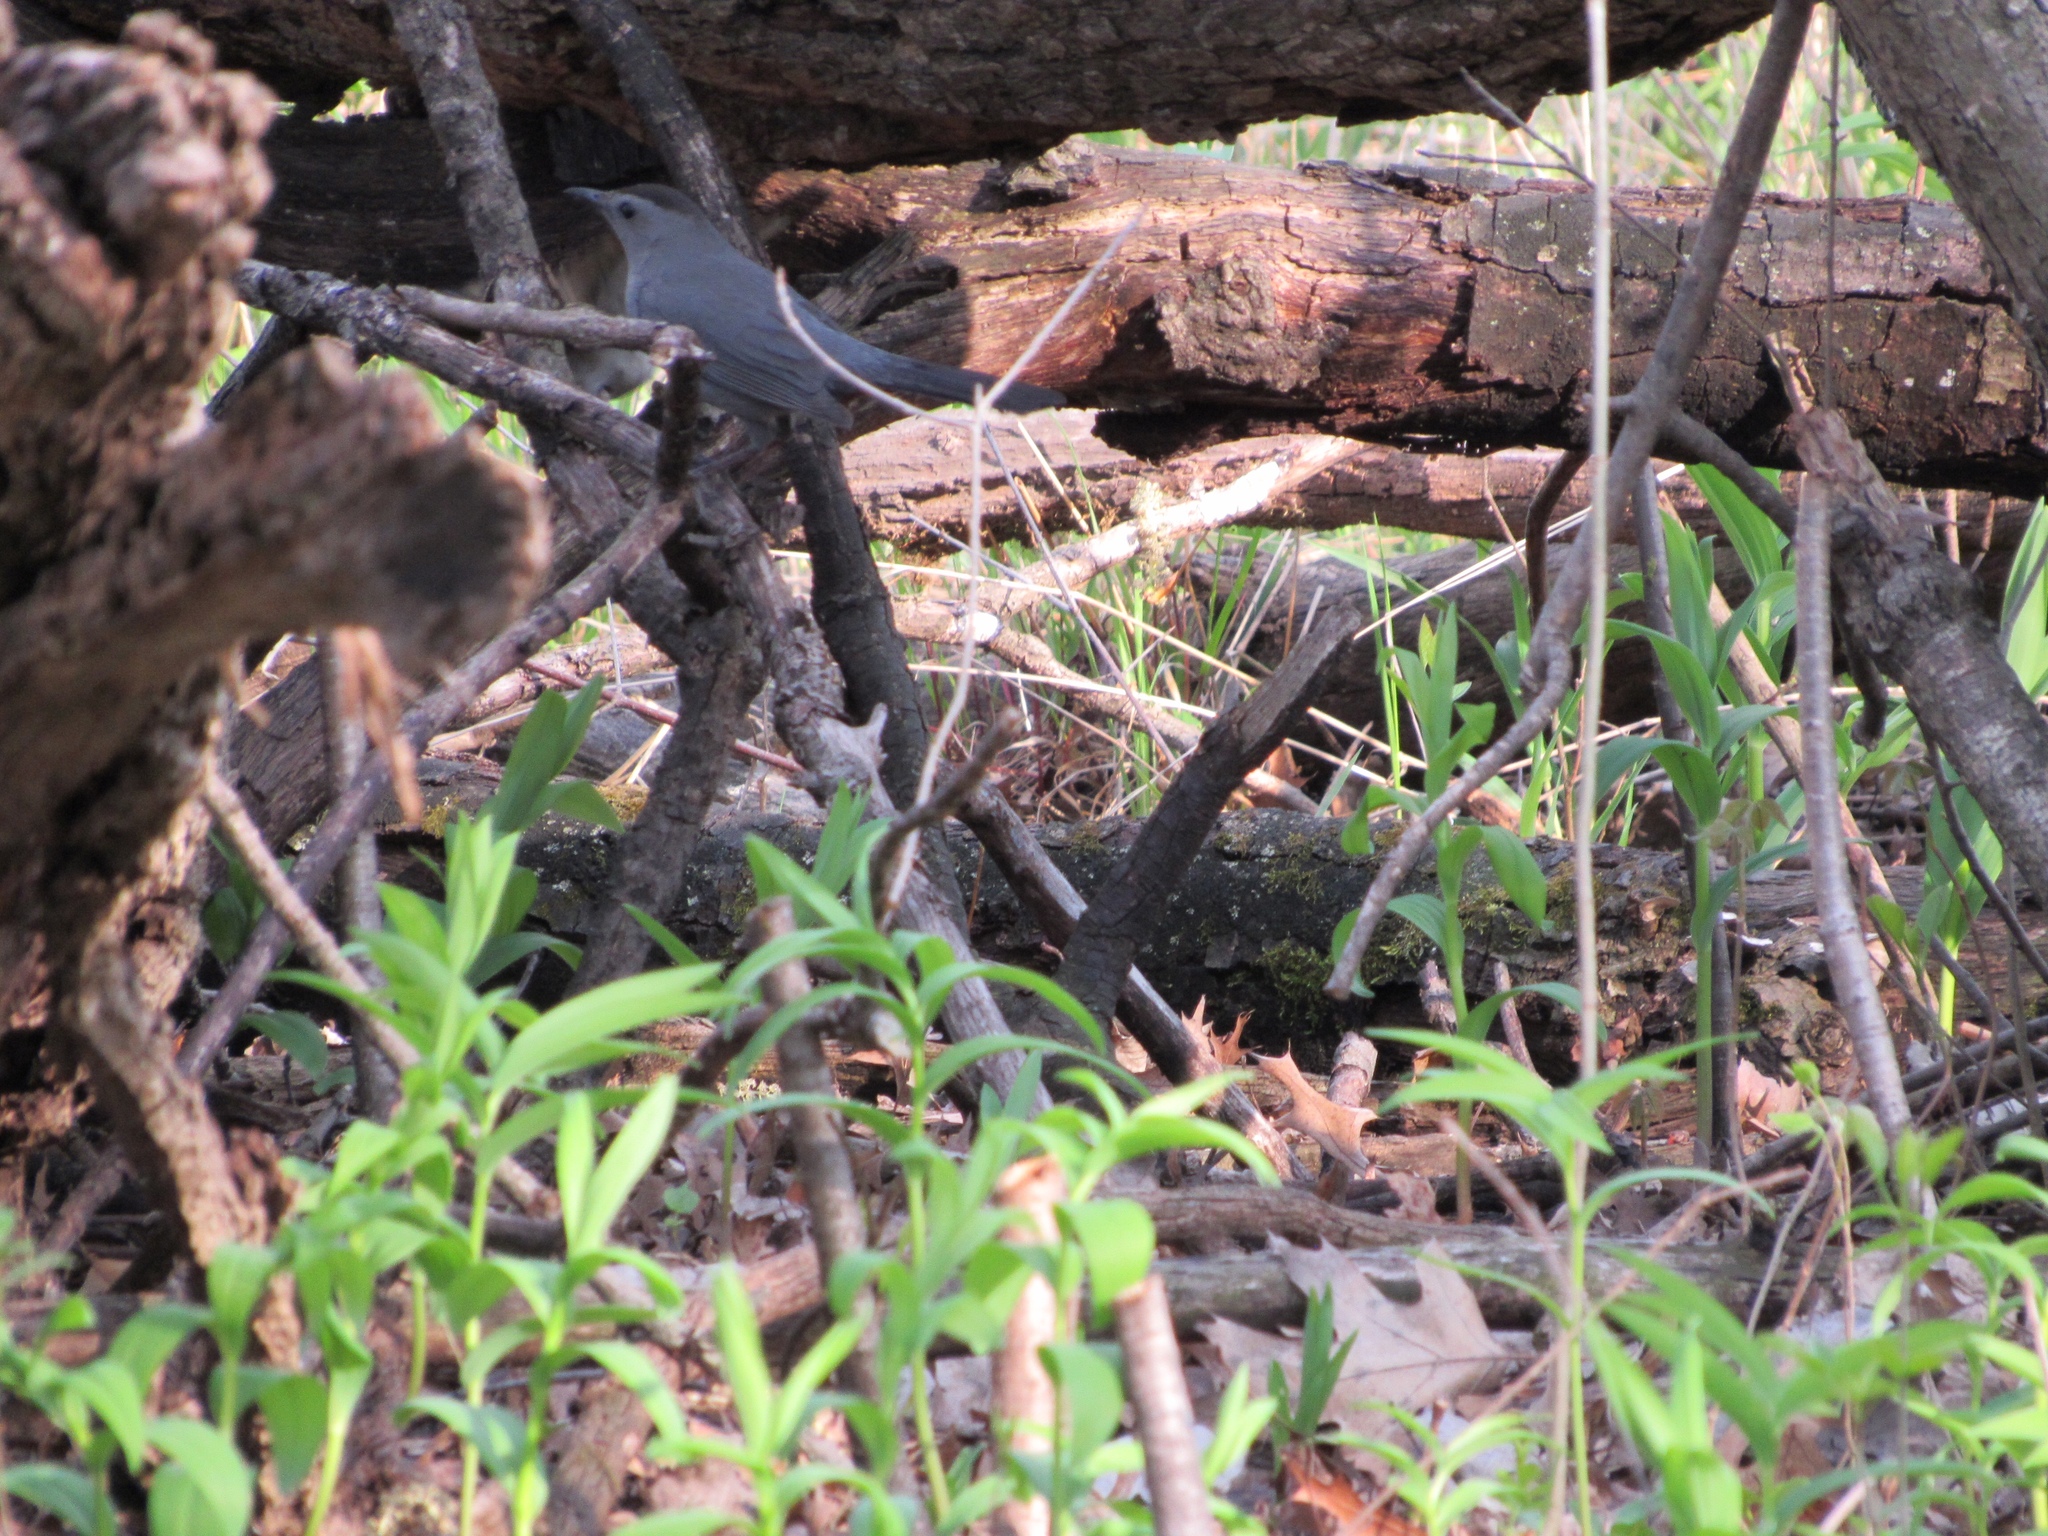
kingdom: Animalia
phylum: Chordata
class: Aves
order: Passeriformes
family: Mimidae
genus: Dumetella
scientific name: Dumetella carolinensis
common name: Gray catbird
